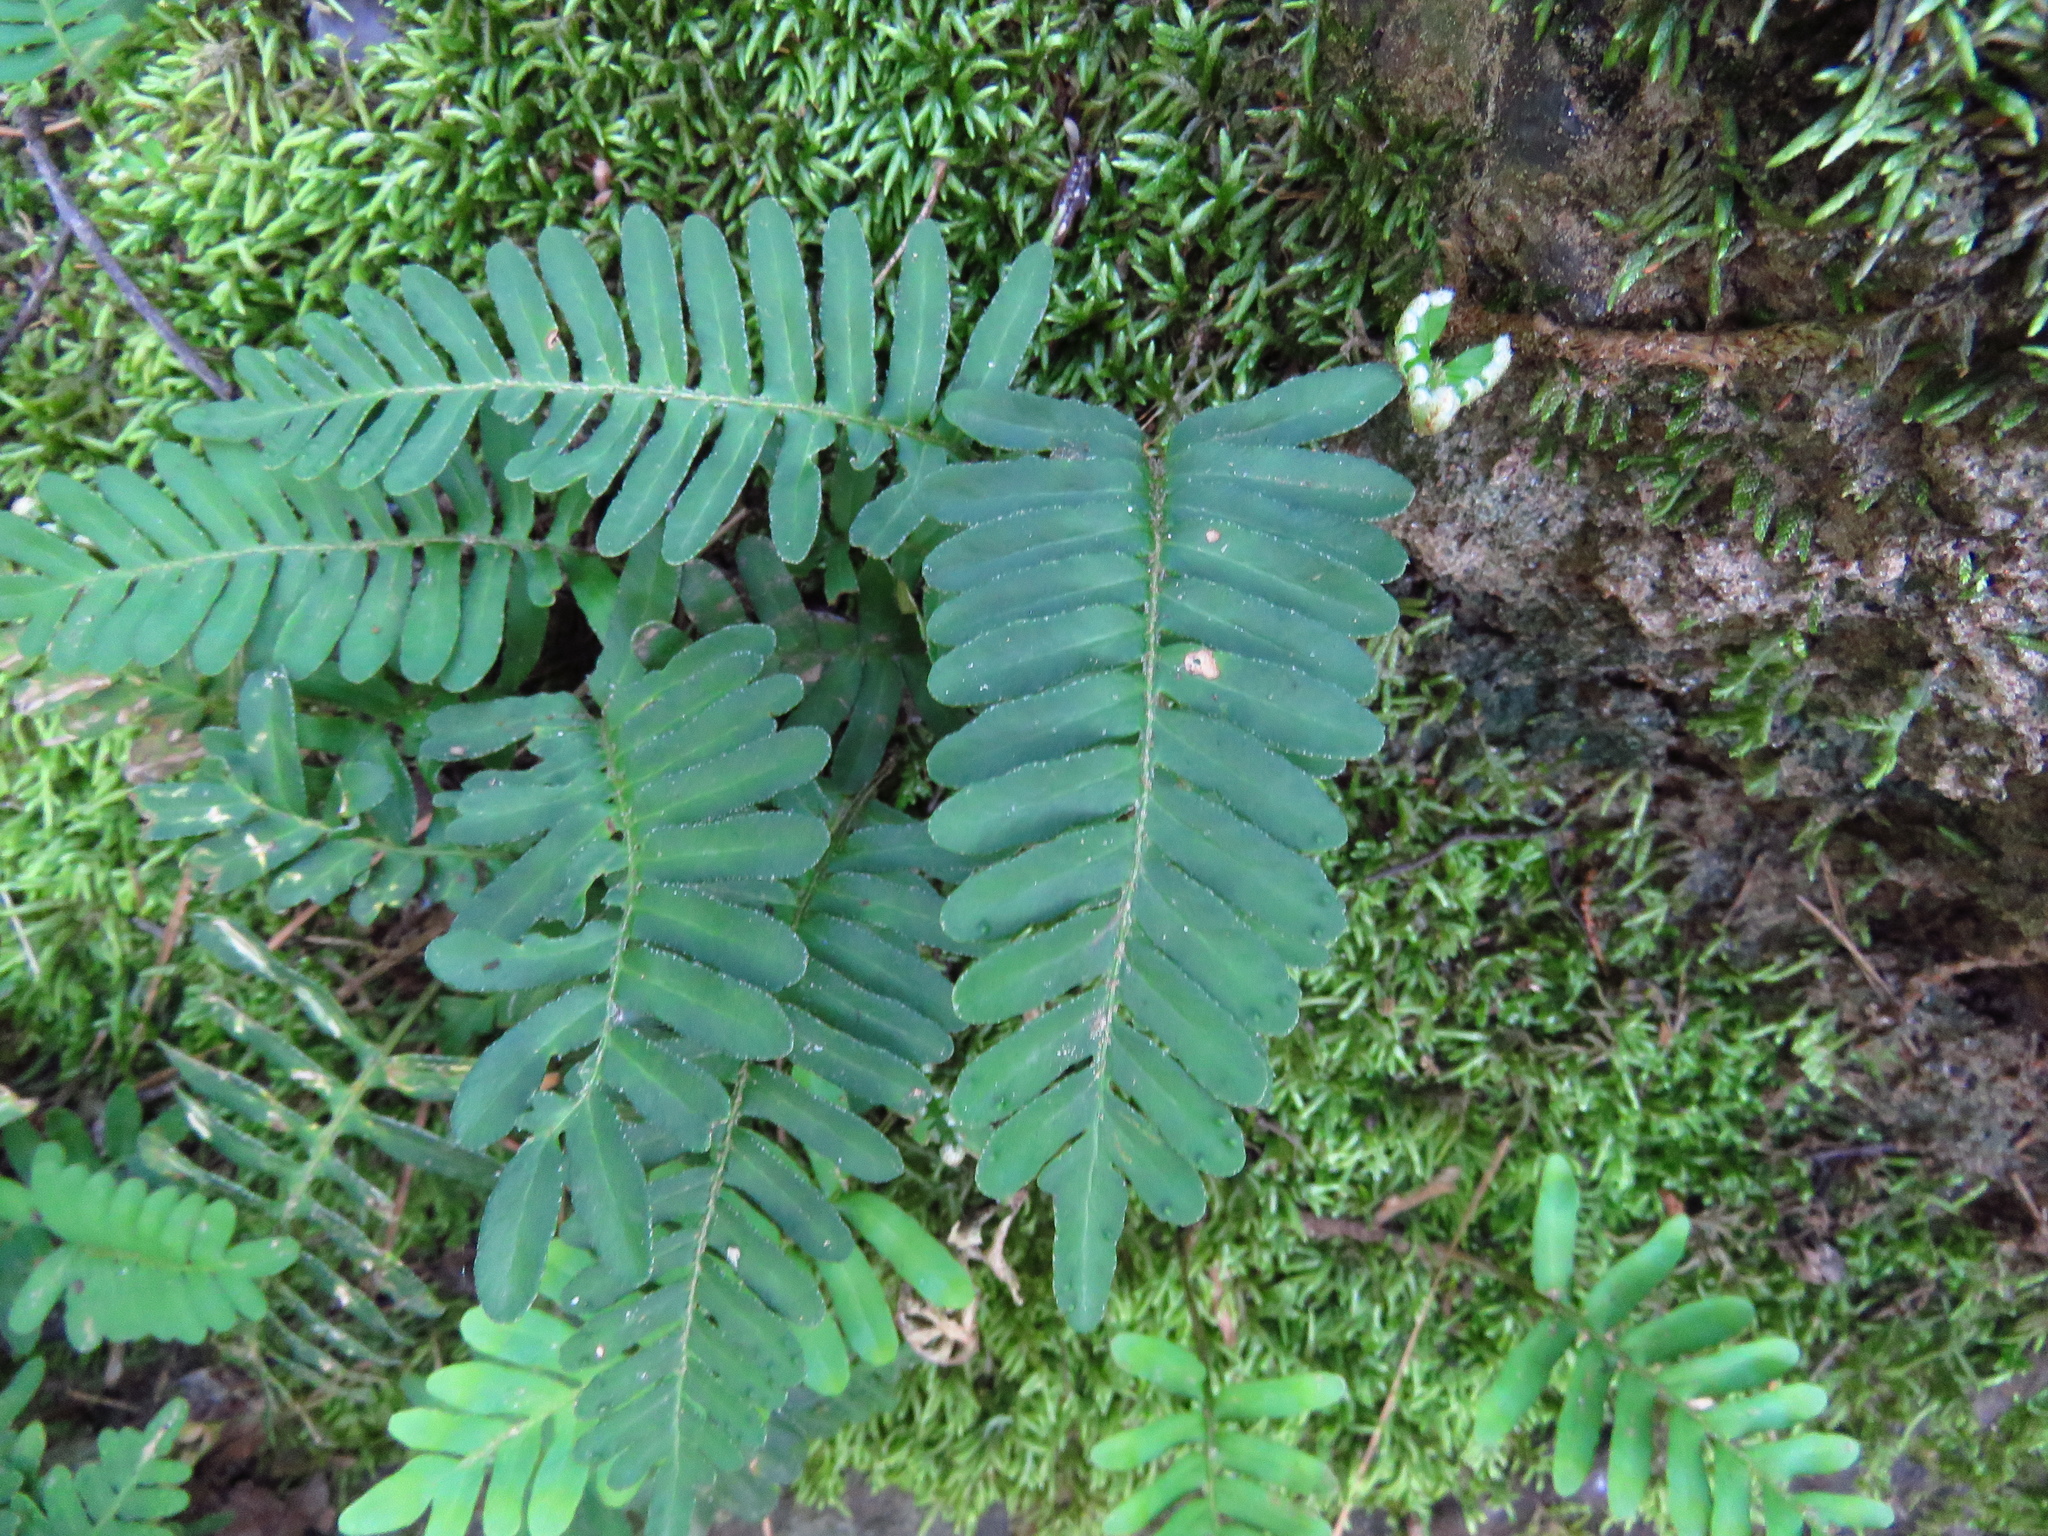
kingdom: Plantae
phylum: Tracheophyta
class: Polypodiopsida
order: Polypodiales
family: Polypodiaceae
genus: Pleopeltis
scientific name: Pleopeltis michauxiana
